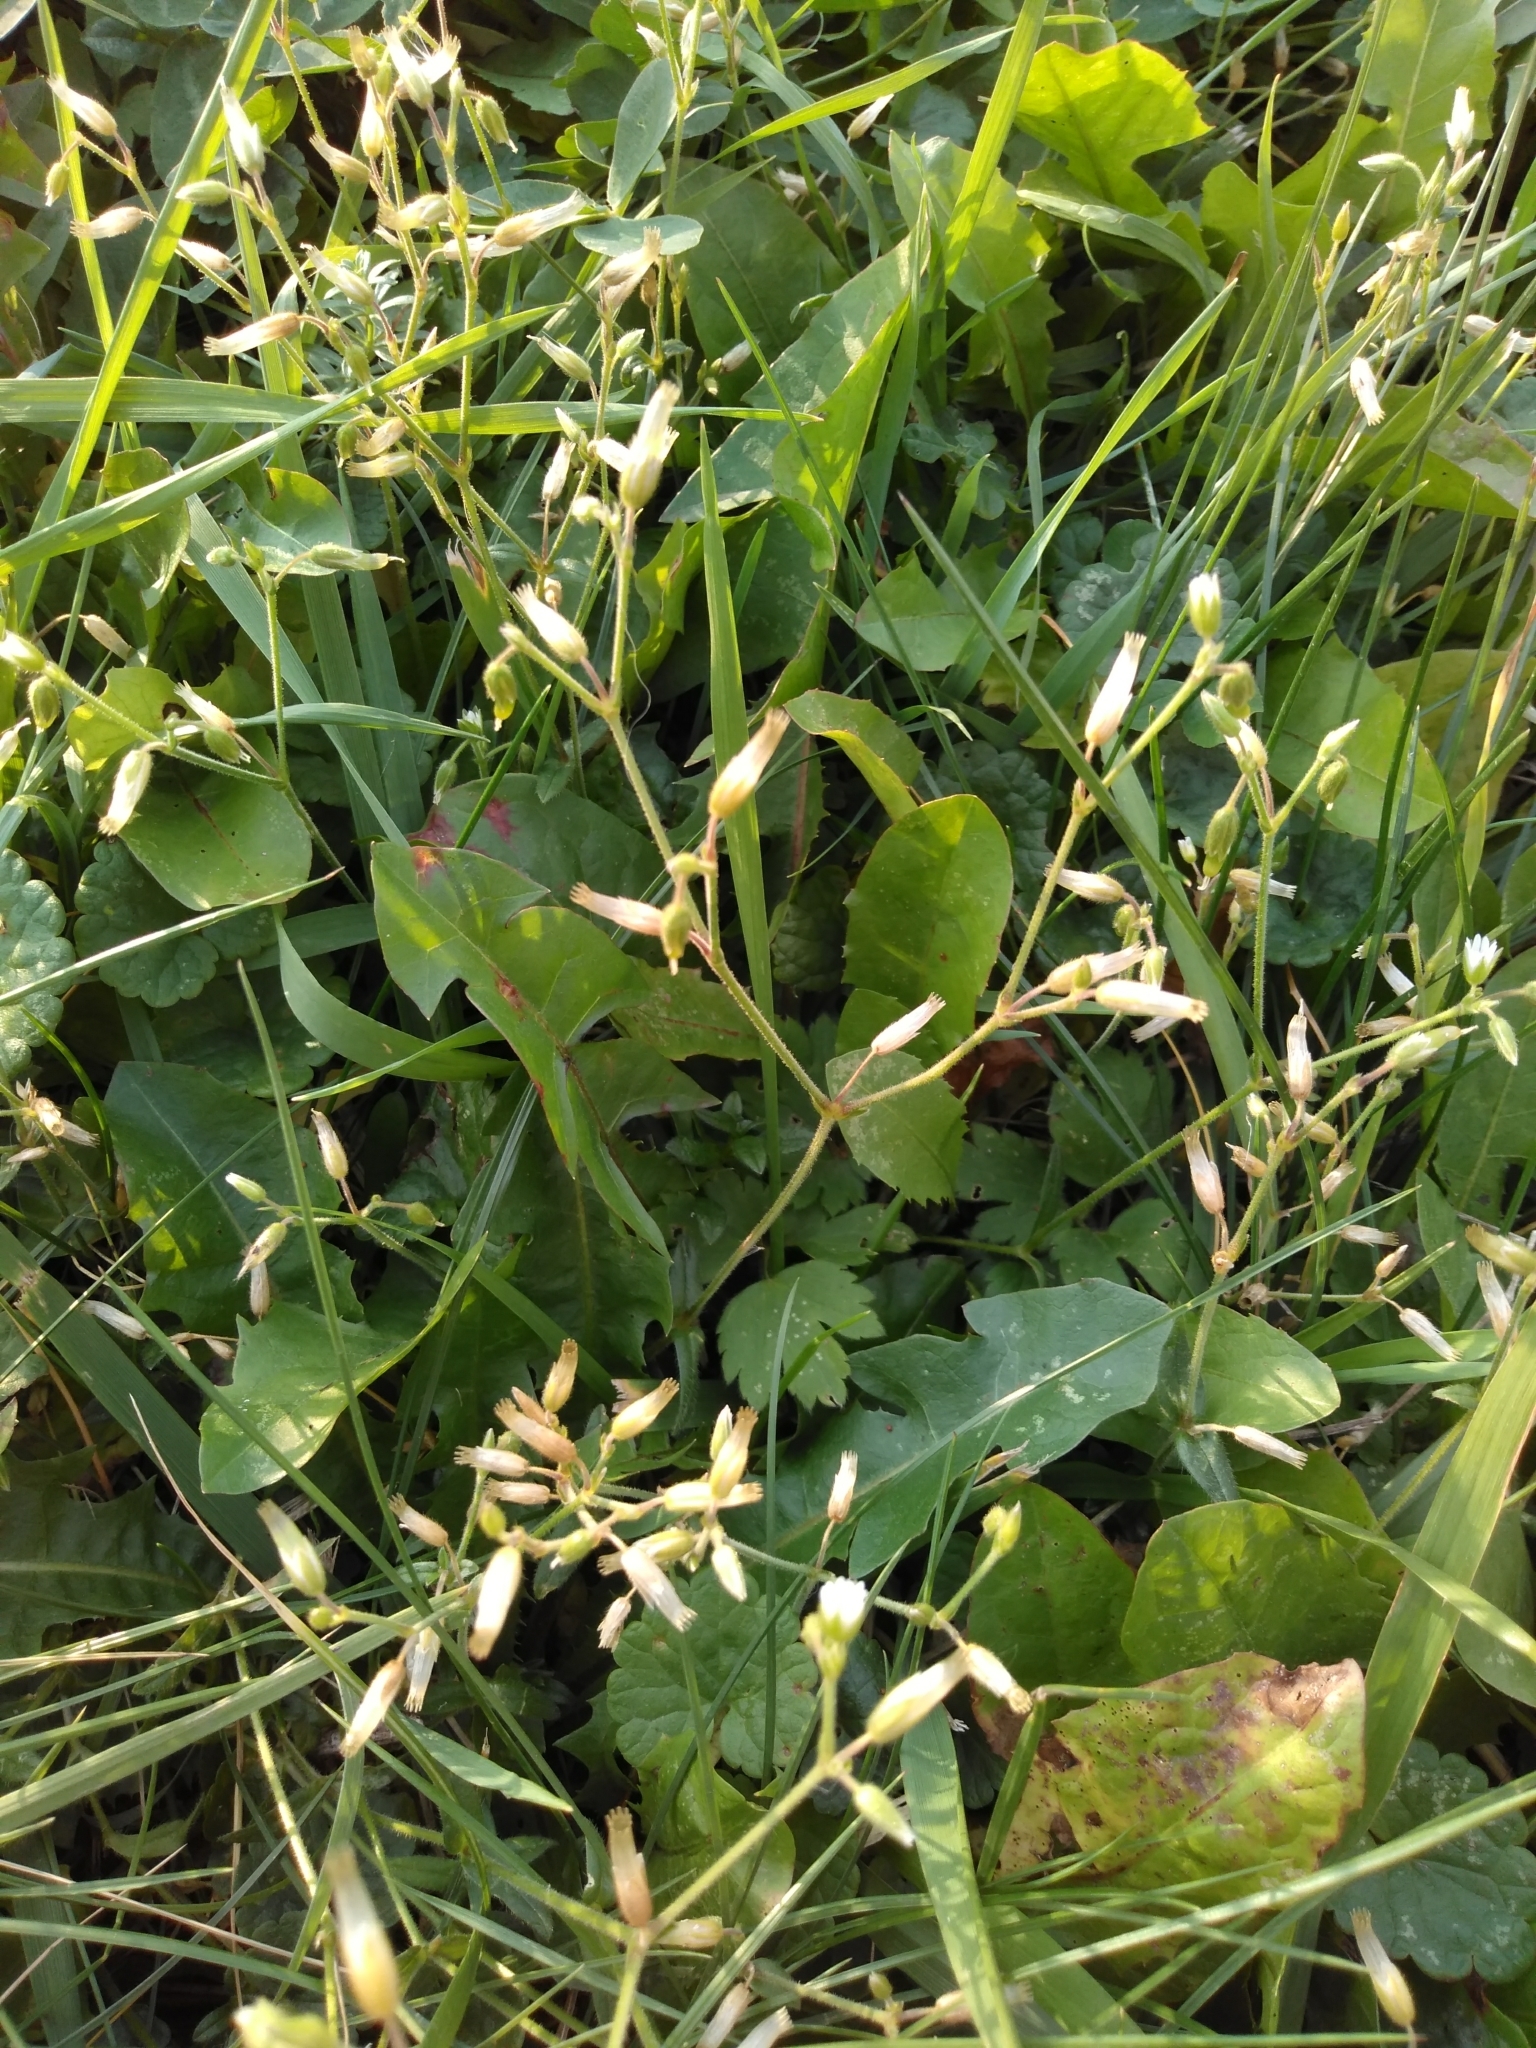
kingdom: Plantae
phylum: Tracheophyta
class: Magnoliopsida
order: Caryophyllales
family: Caryophyllaceae
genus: Cerastium
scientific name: Cerastium holosteoides
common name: Big chickweed
